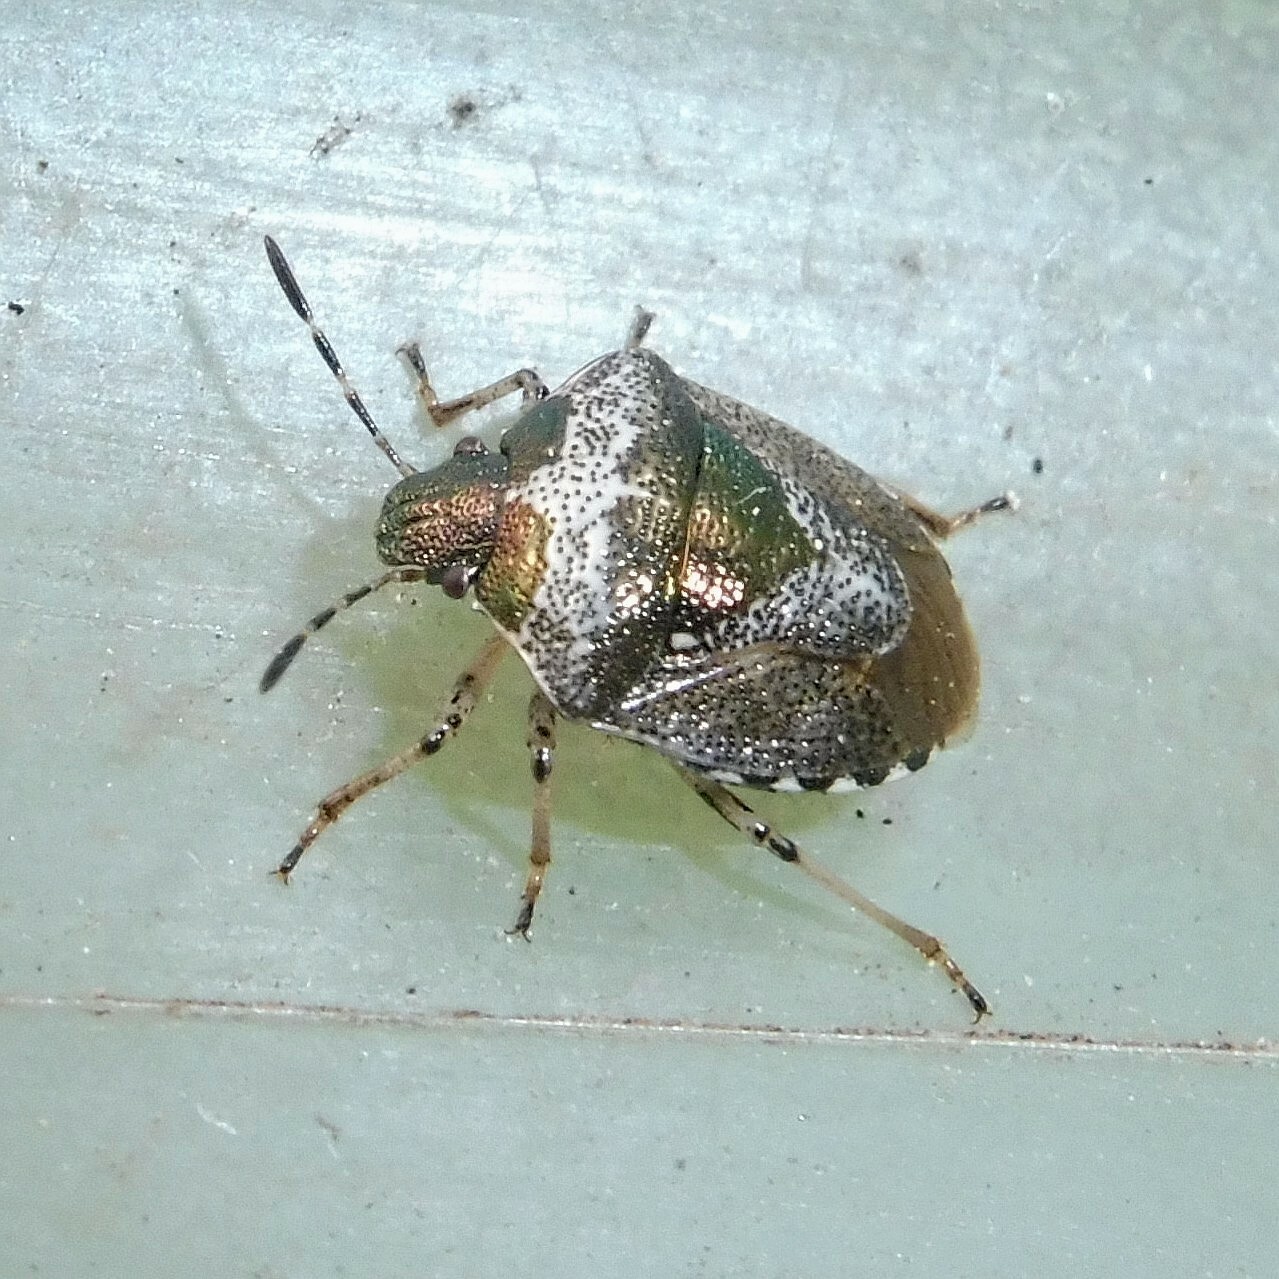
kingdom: Animalia
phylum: Arthropoda
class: Insecta
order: Hemiptera
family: Pentatomidae
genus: Eysarcoris
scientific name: Eysarcoris venustissimus
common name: Woundwort shieldbug
